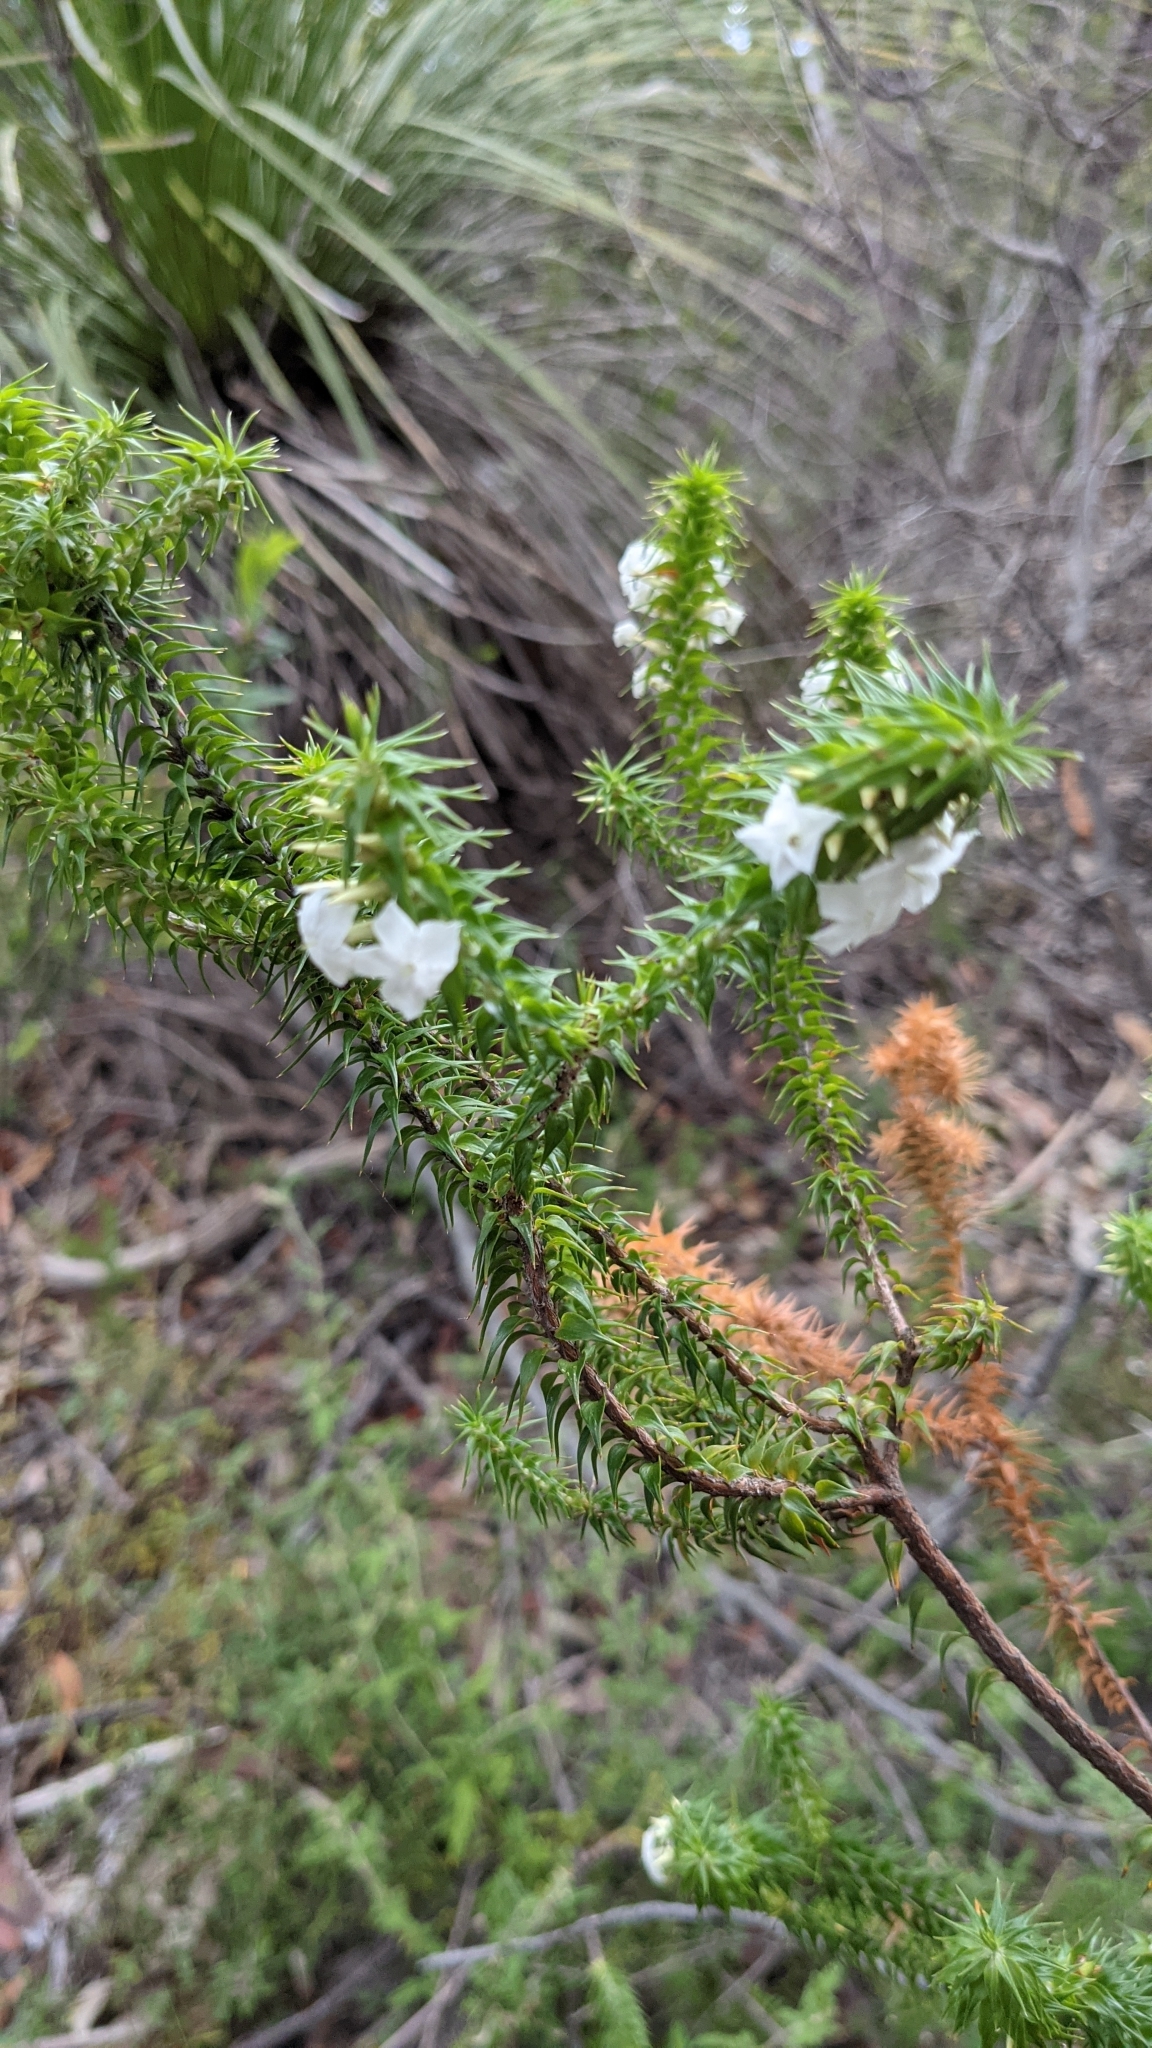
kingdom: Plantae
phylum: Tracheophyta
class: Magnoliopsida
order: Ericales
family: Ericaceae
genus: Woollsia
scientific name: Woollsia pungens
